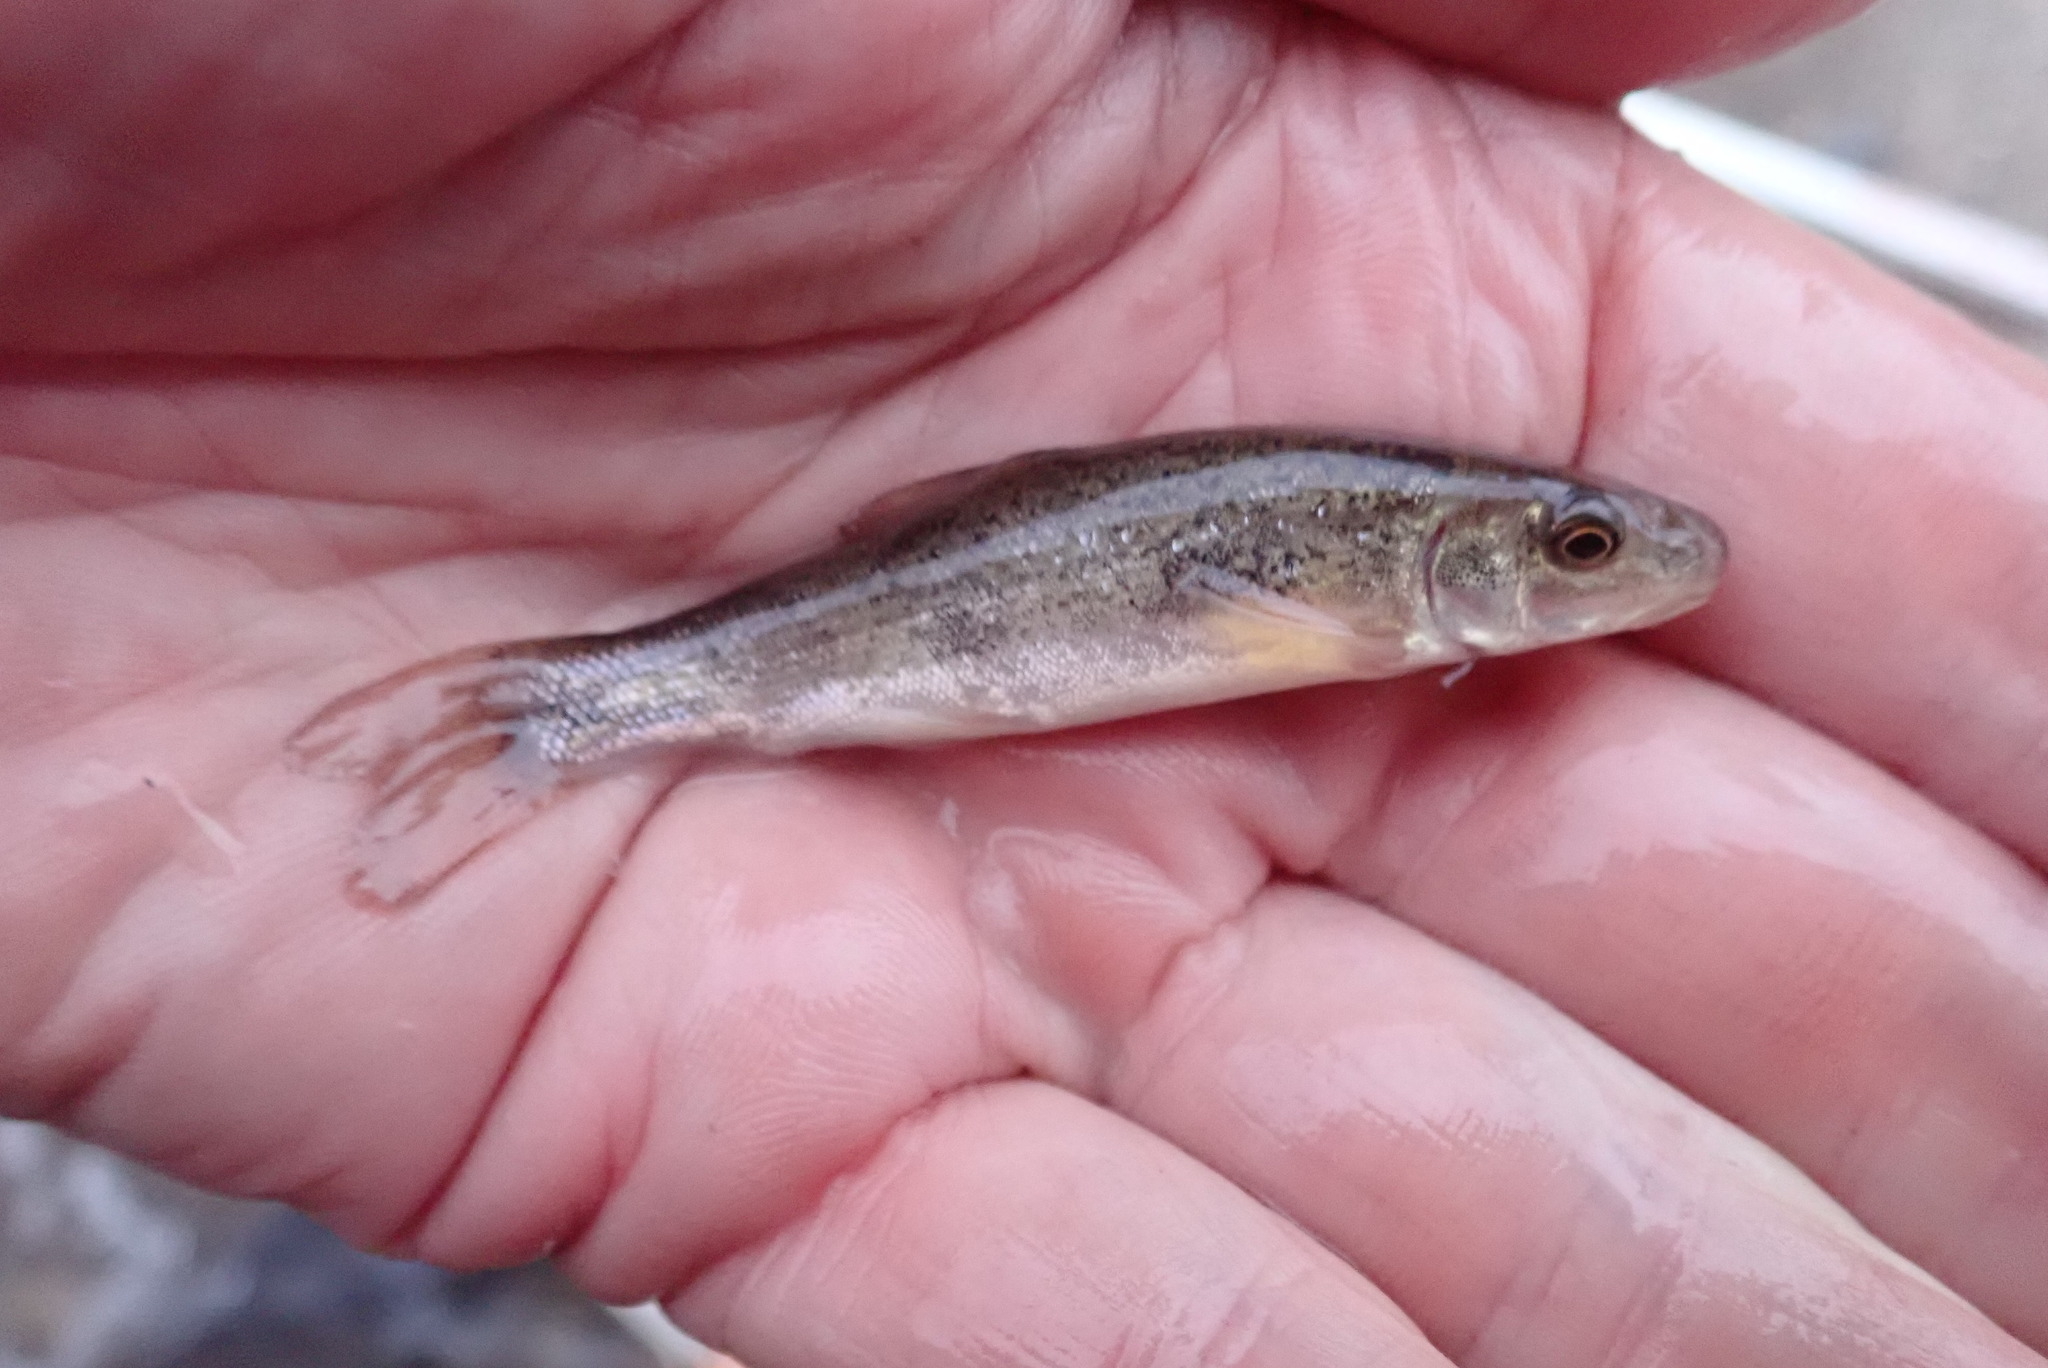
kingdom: Animalia
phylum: Chordata
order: Cypriniformes
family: Catostomidae
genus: Catostomus
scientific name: Catostomus catostomus
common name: Longnose sucker
